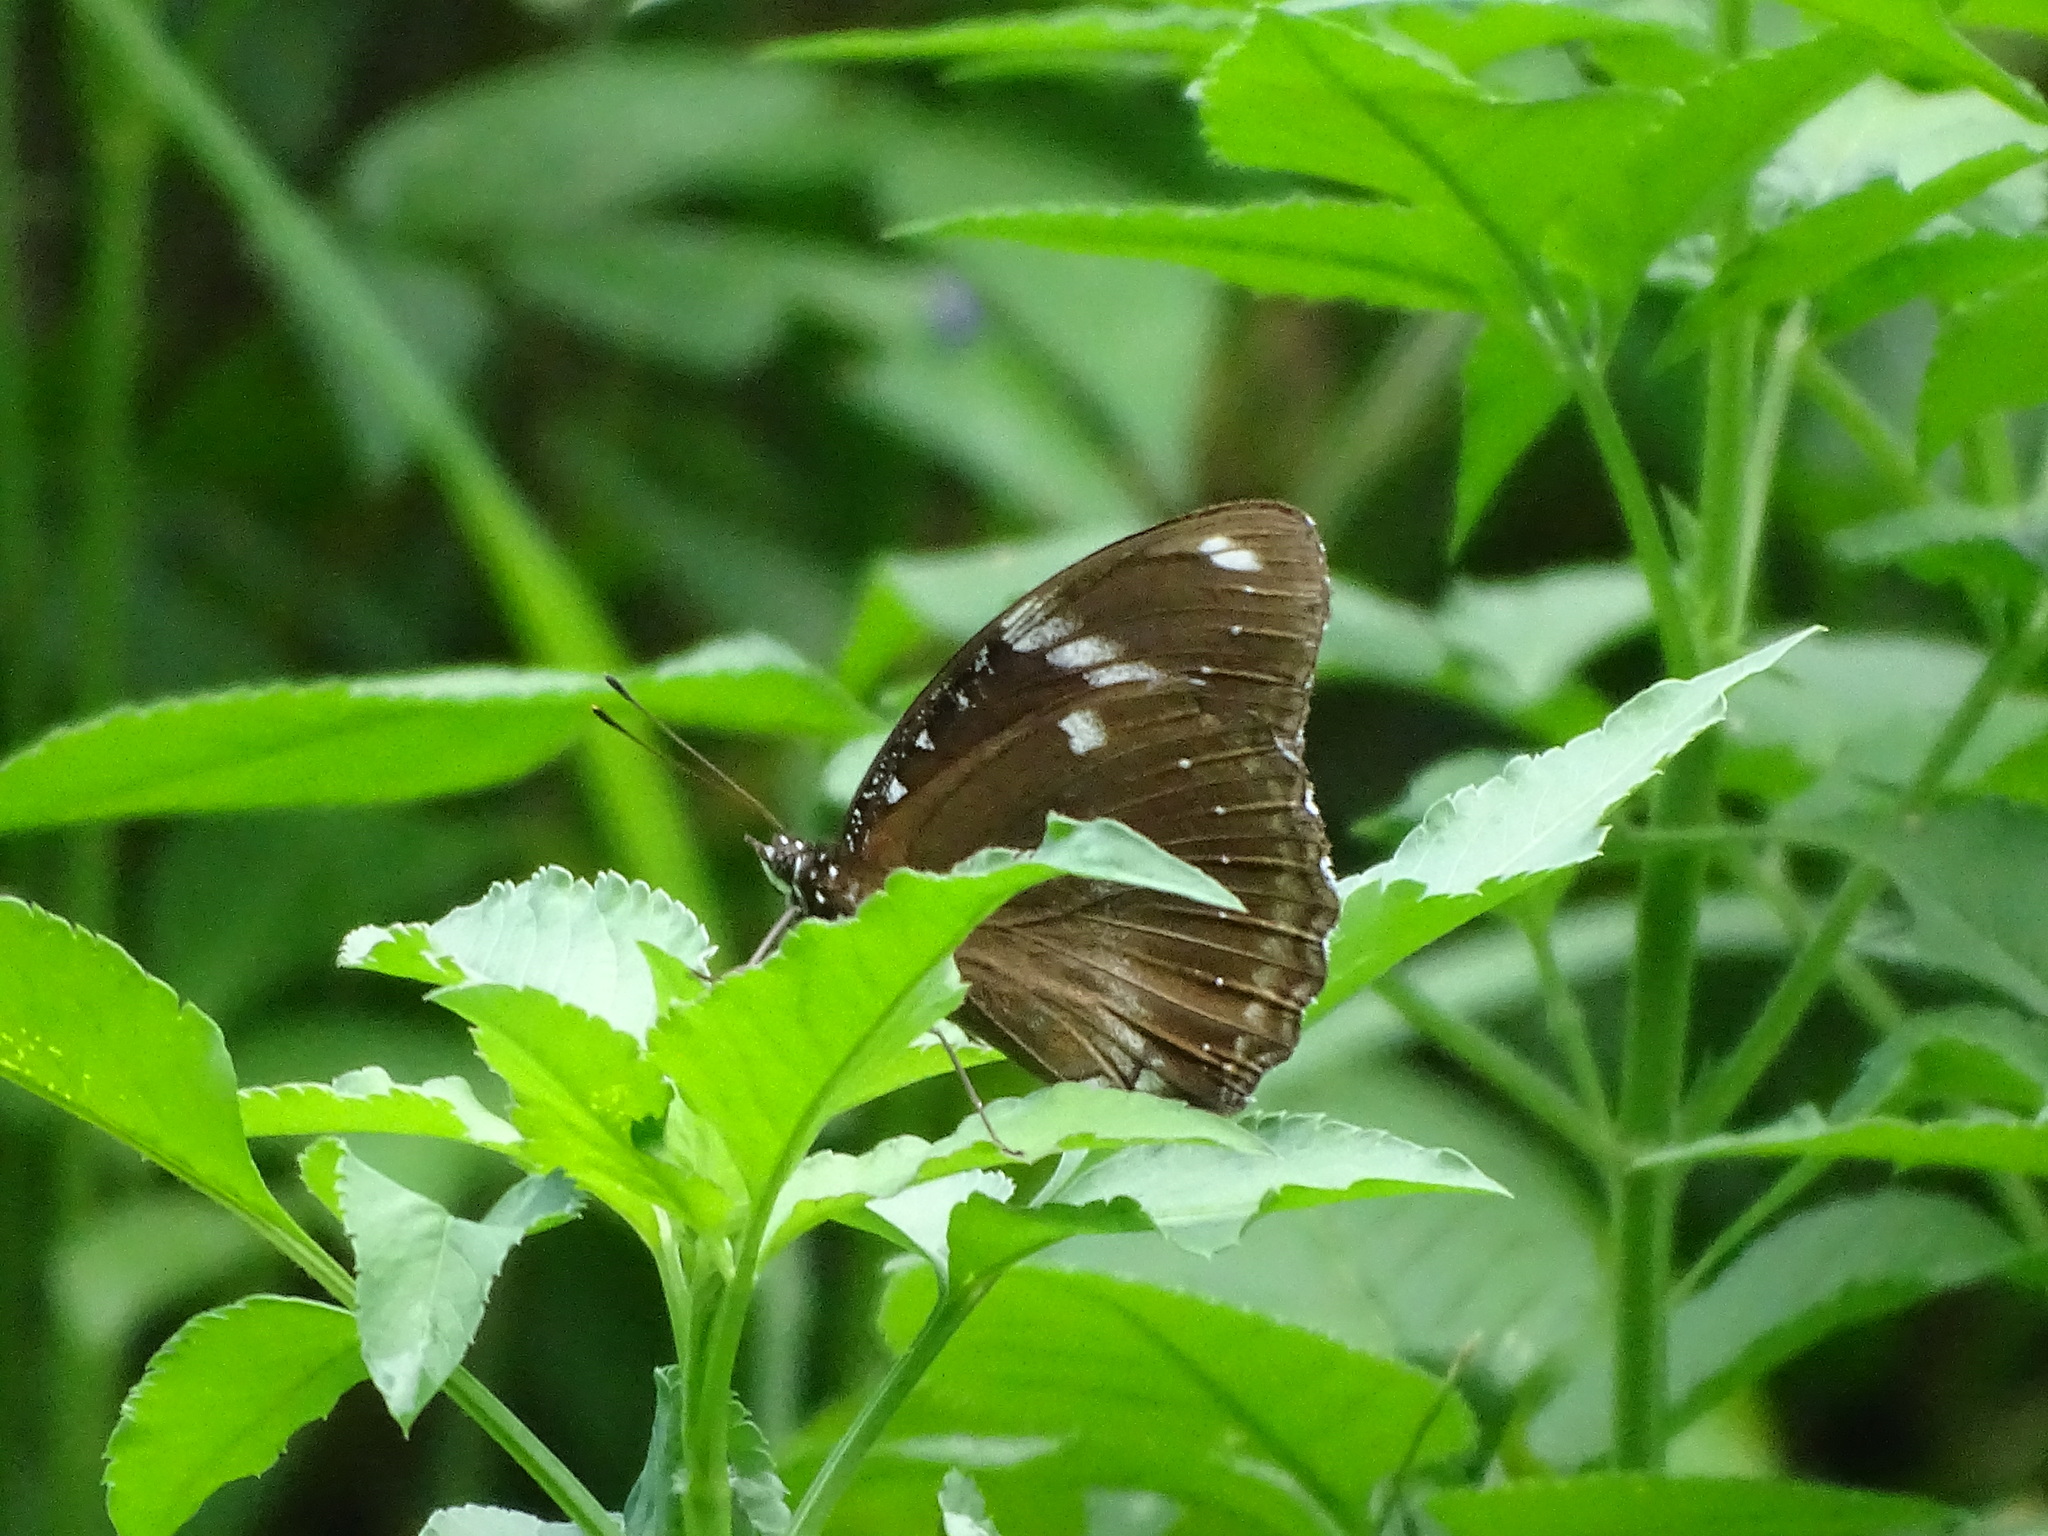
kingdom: Animalia
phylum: Arthropoda
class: Insecta
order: Lepidoptera
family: Nymphalidae
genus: Hypolimnas
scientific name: Hypolimnas bolina
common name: Great eggfly
